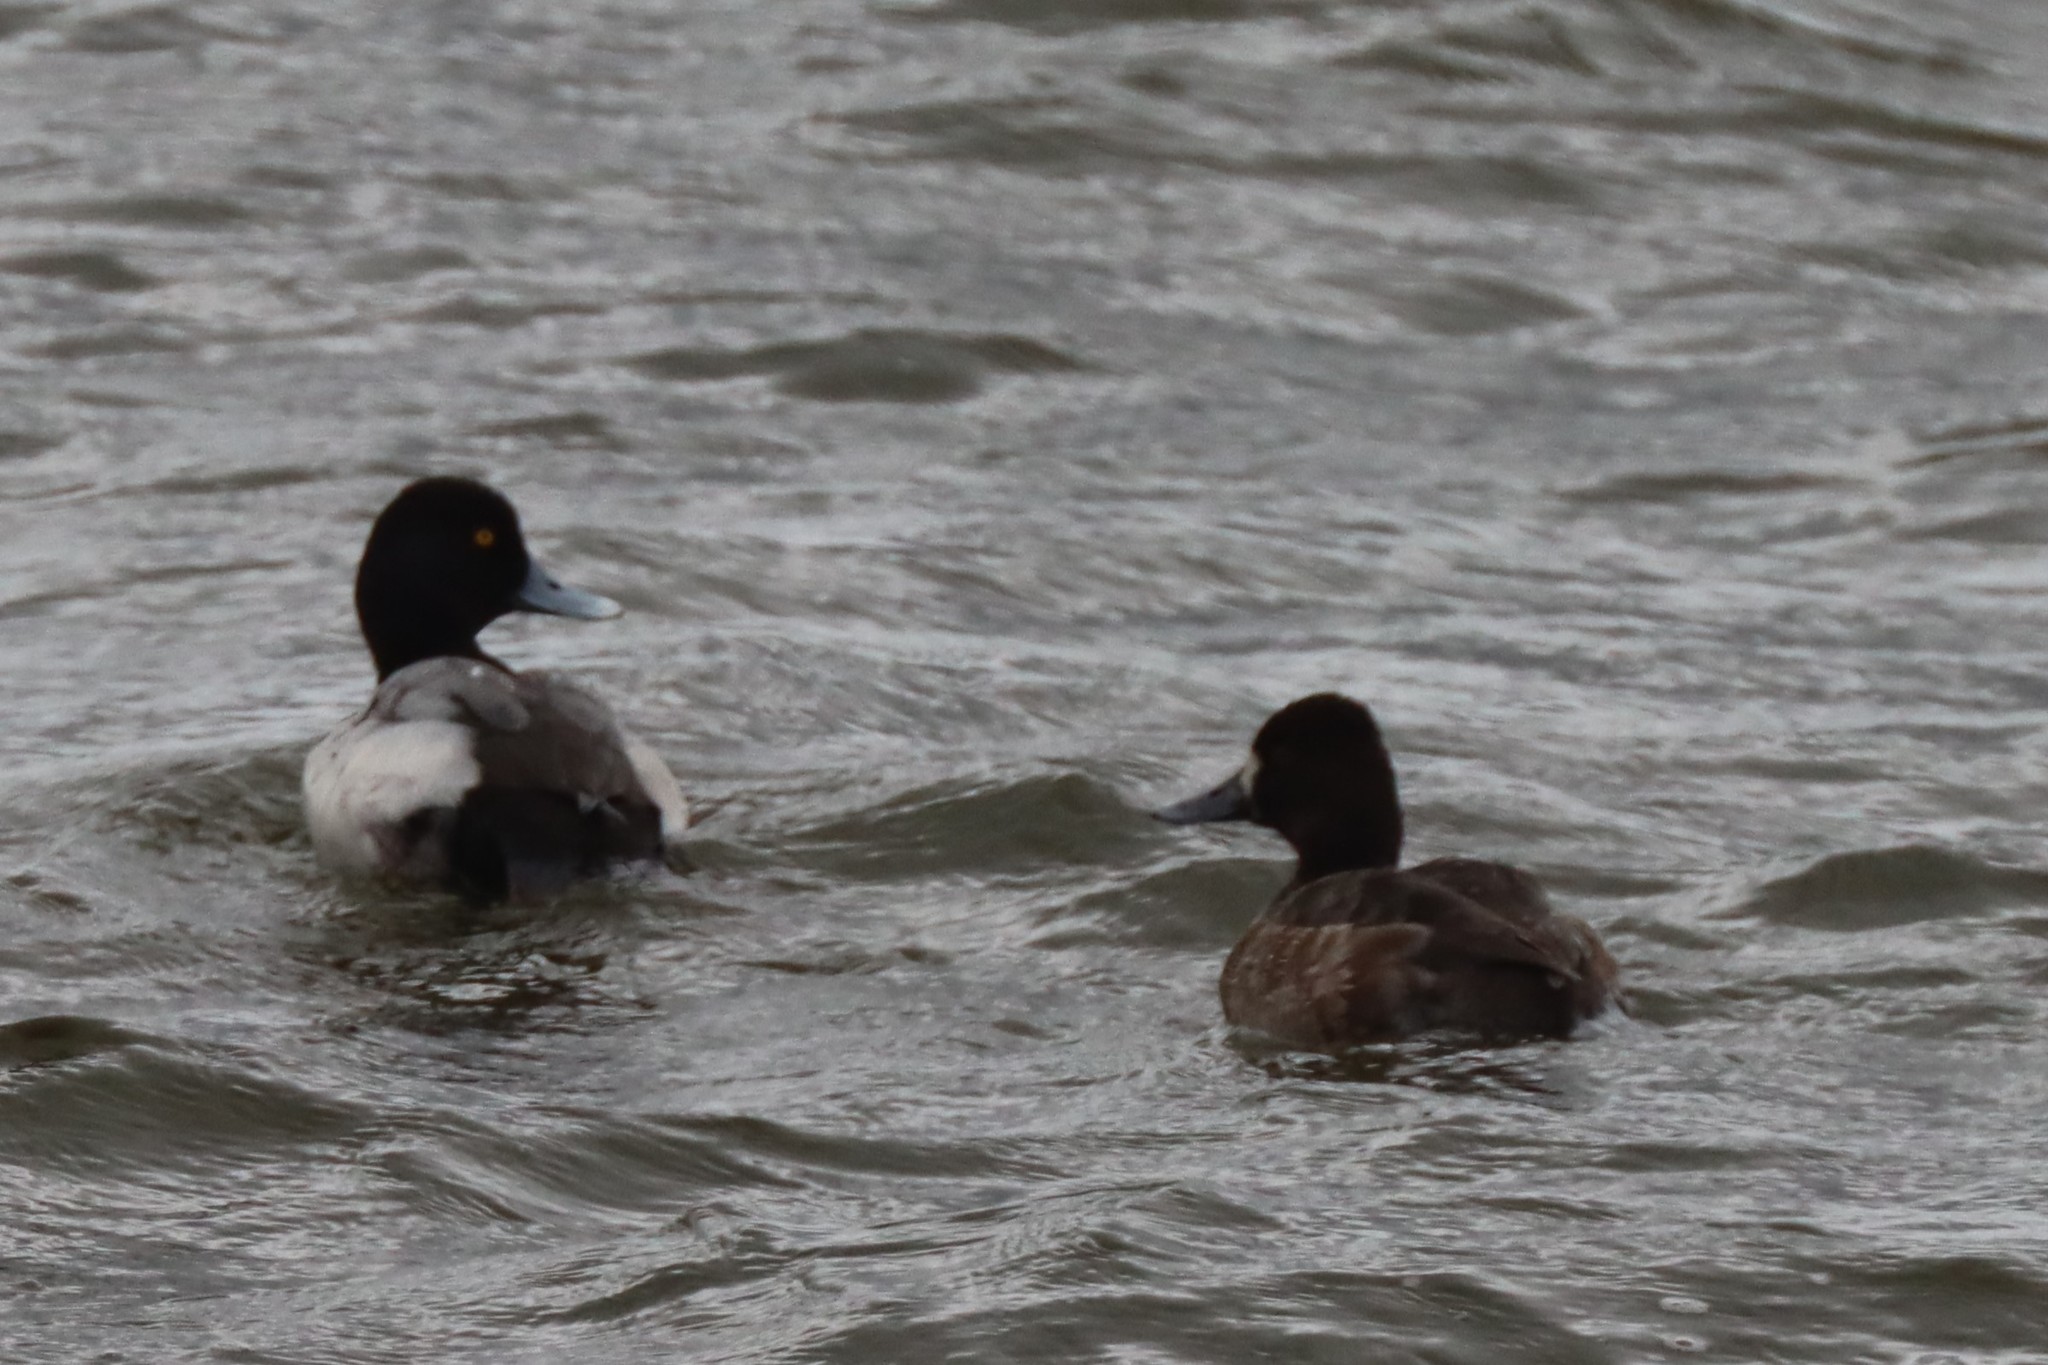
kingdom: Animalia
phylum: Chordata
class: Aves
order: Anseriformes
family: Anatidae
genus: Aythya
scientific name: Aythya affinis
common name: Lesser scaup
